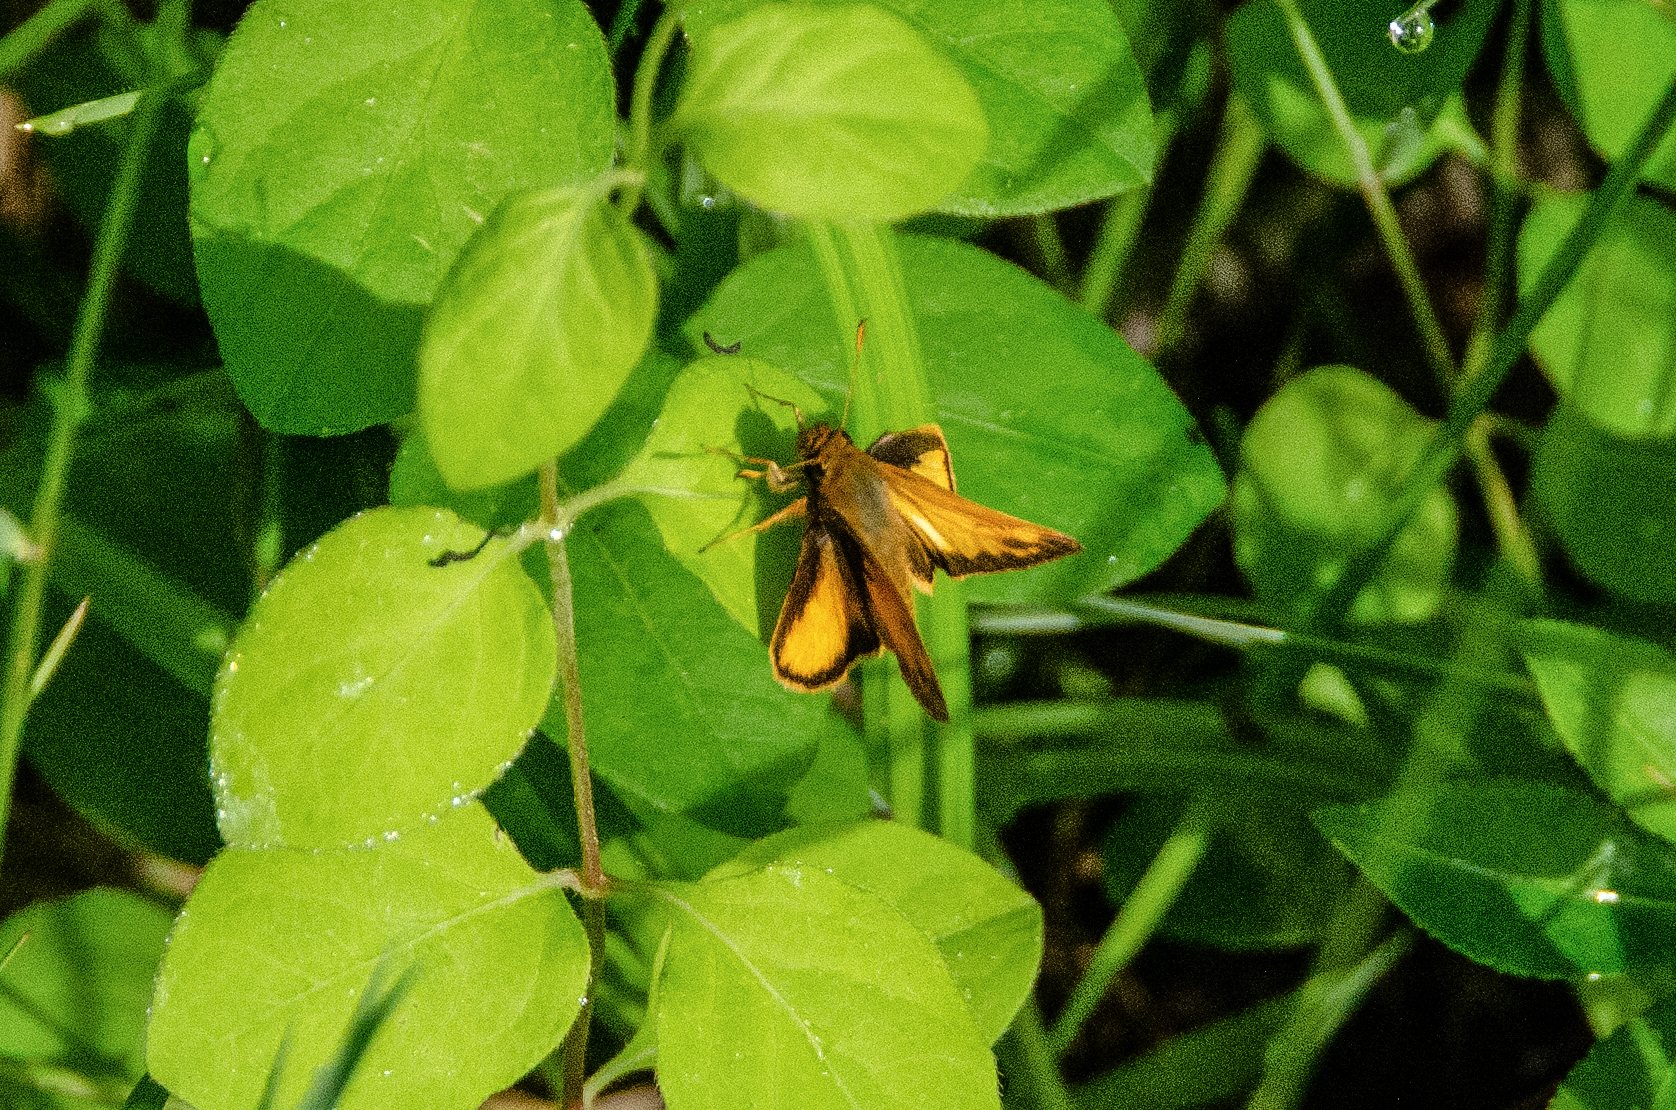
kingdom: Animalia
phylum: Arthropoda
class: Insecta
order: Lepidoptera
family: Hesperiidae
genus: Lon
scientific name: Lon zabulon
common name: Zabulon skipper
